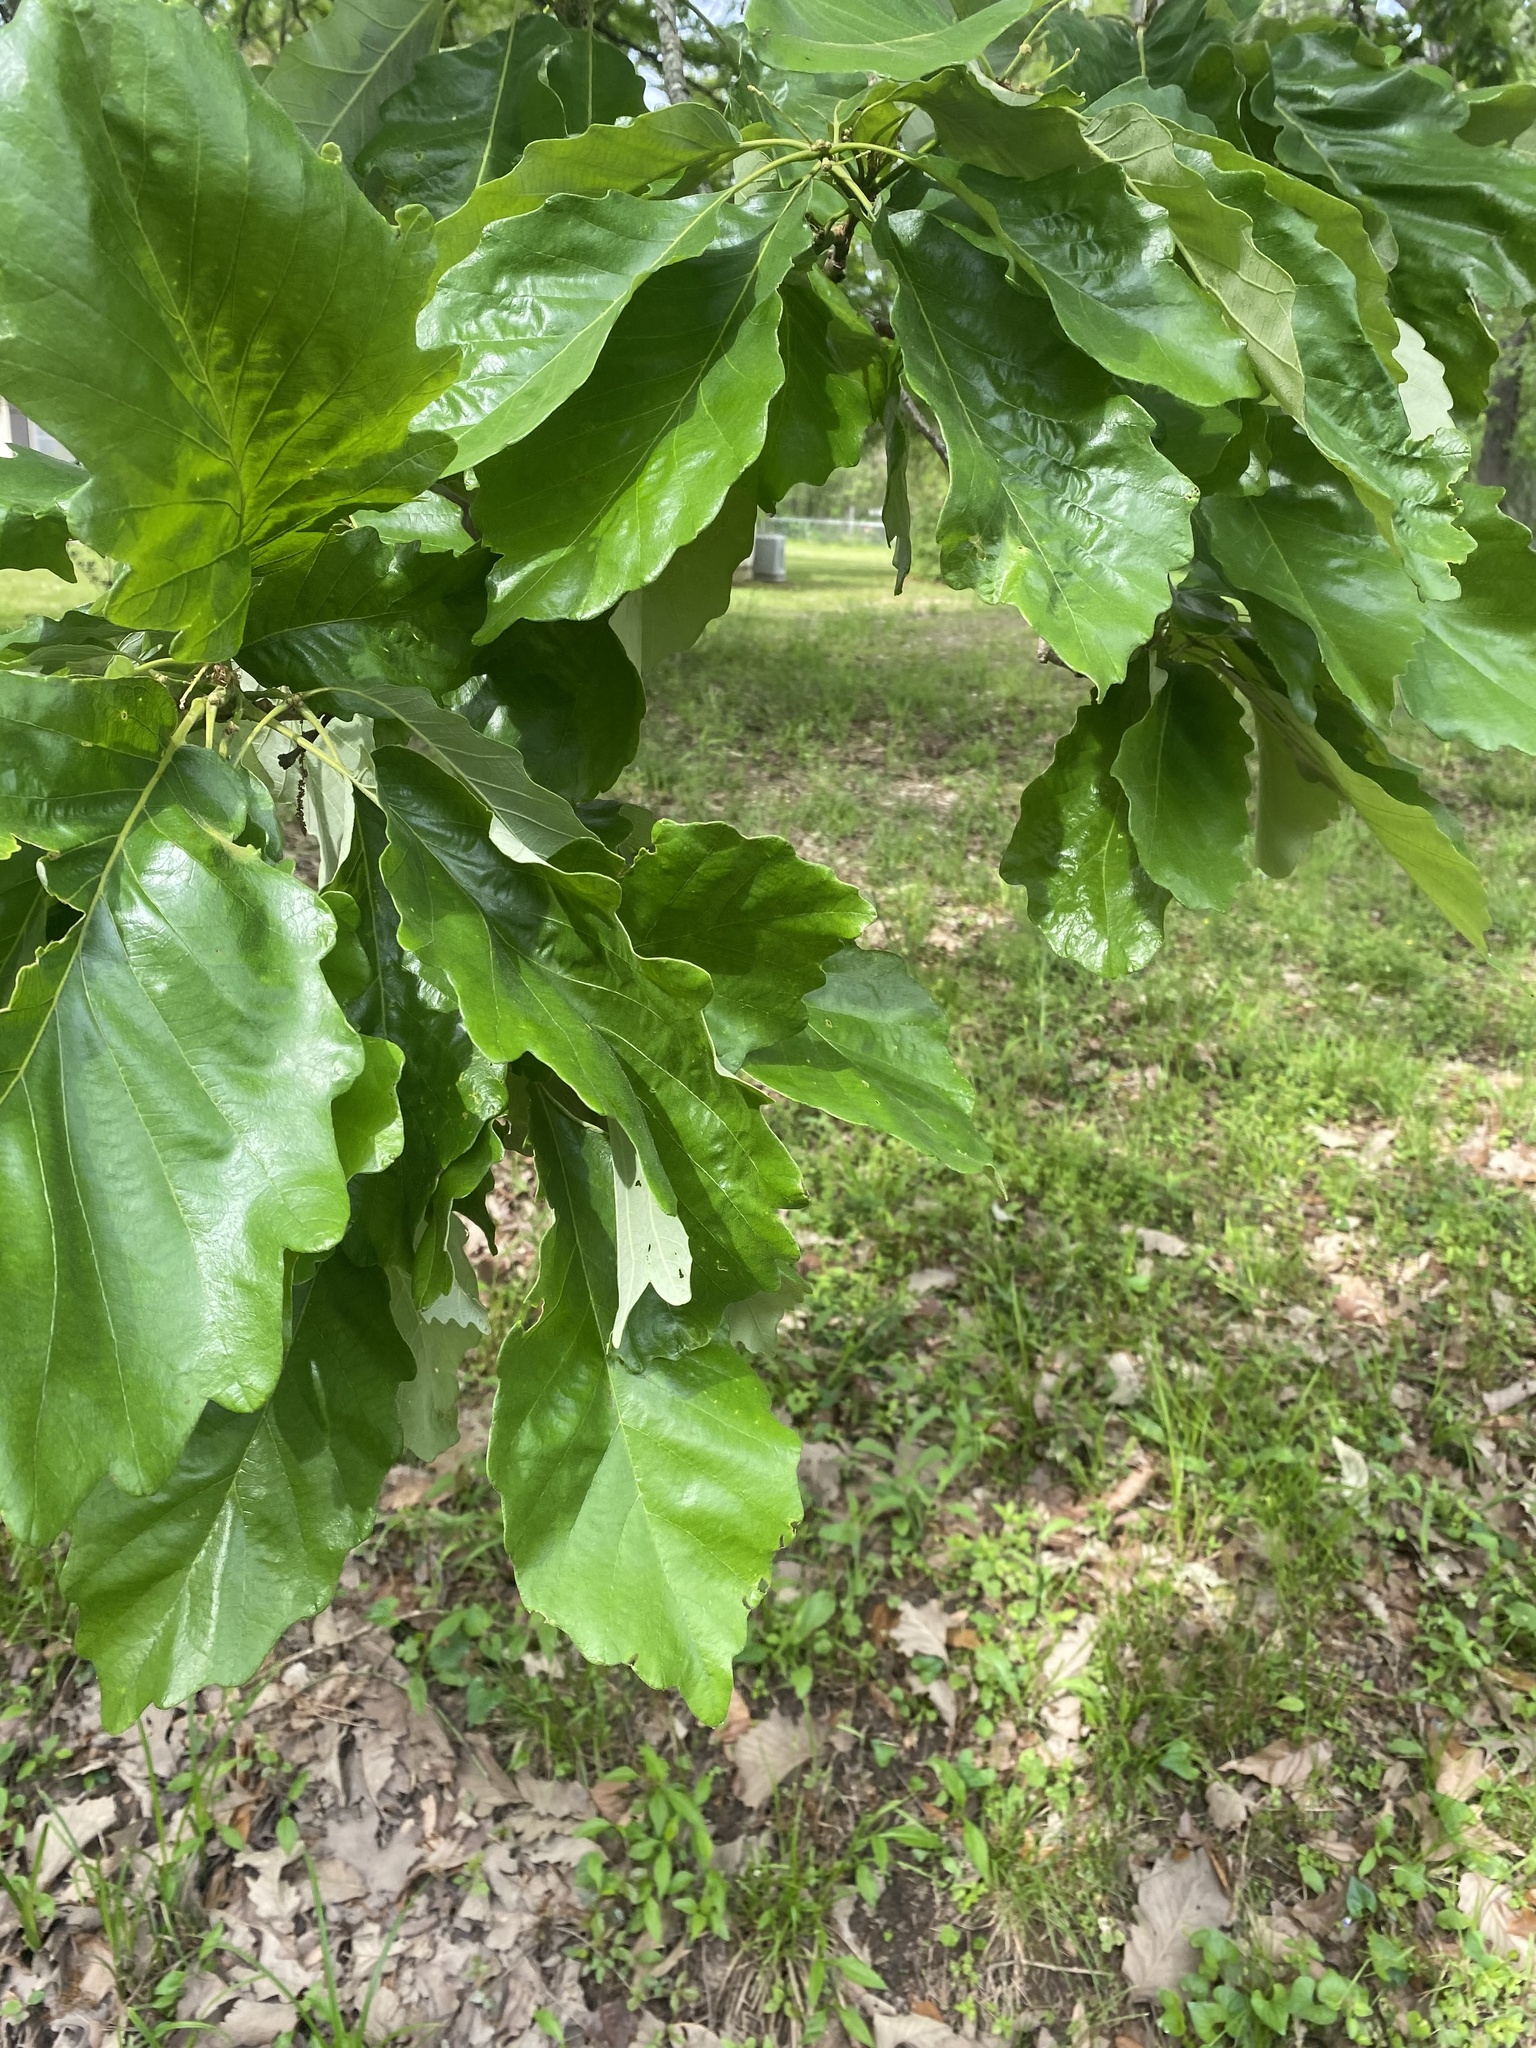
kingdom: Plantae
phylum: Tracheophyta
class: Magnoliopsida
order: Fagales
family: Fagaceae
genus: Quercus
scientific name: Quercus michauxii
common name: Swamp chestnut oak
